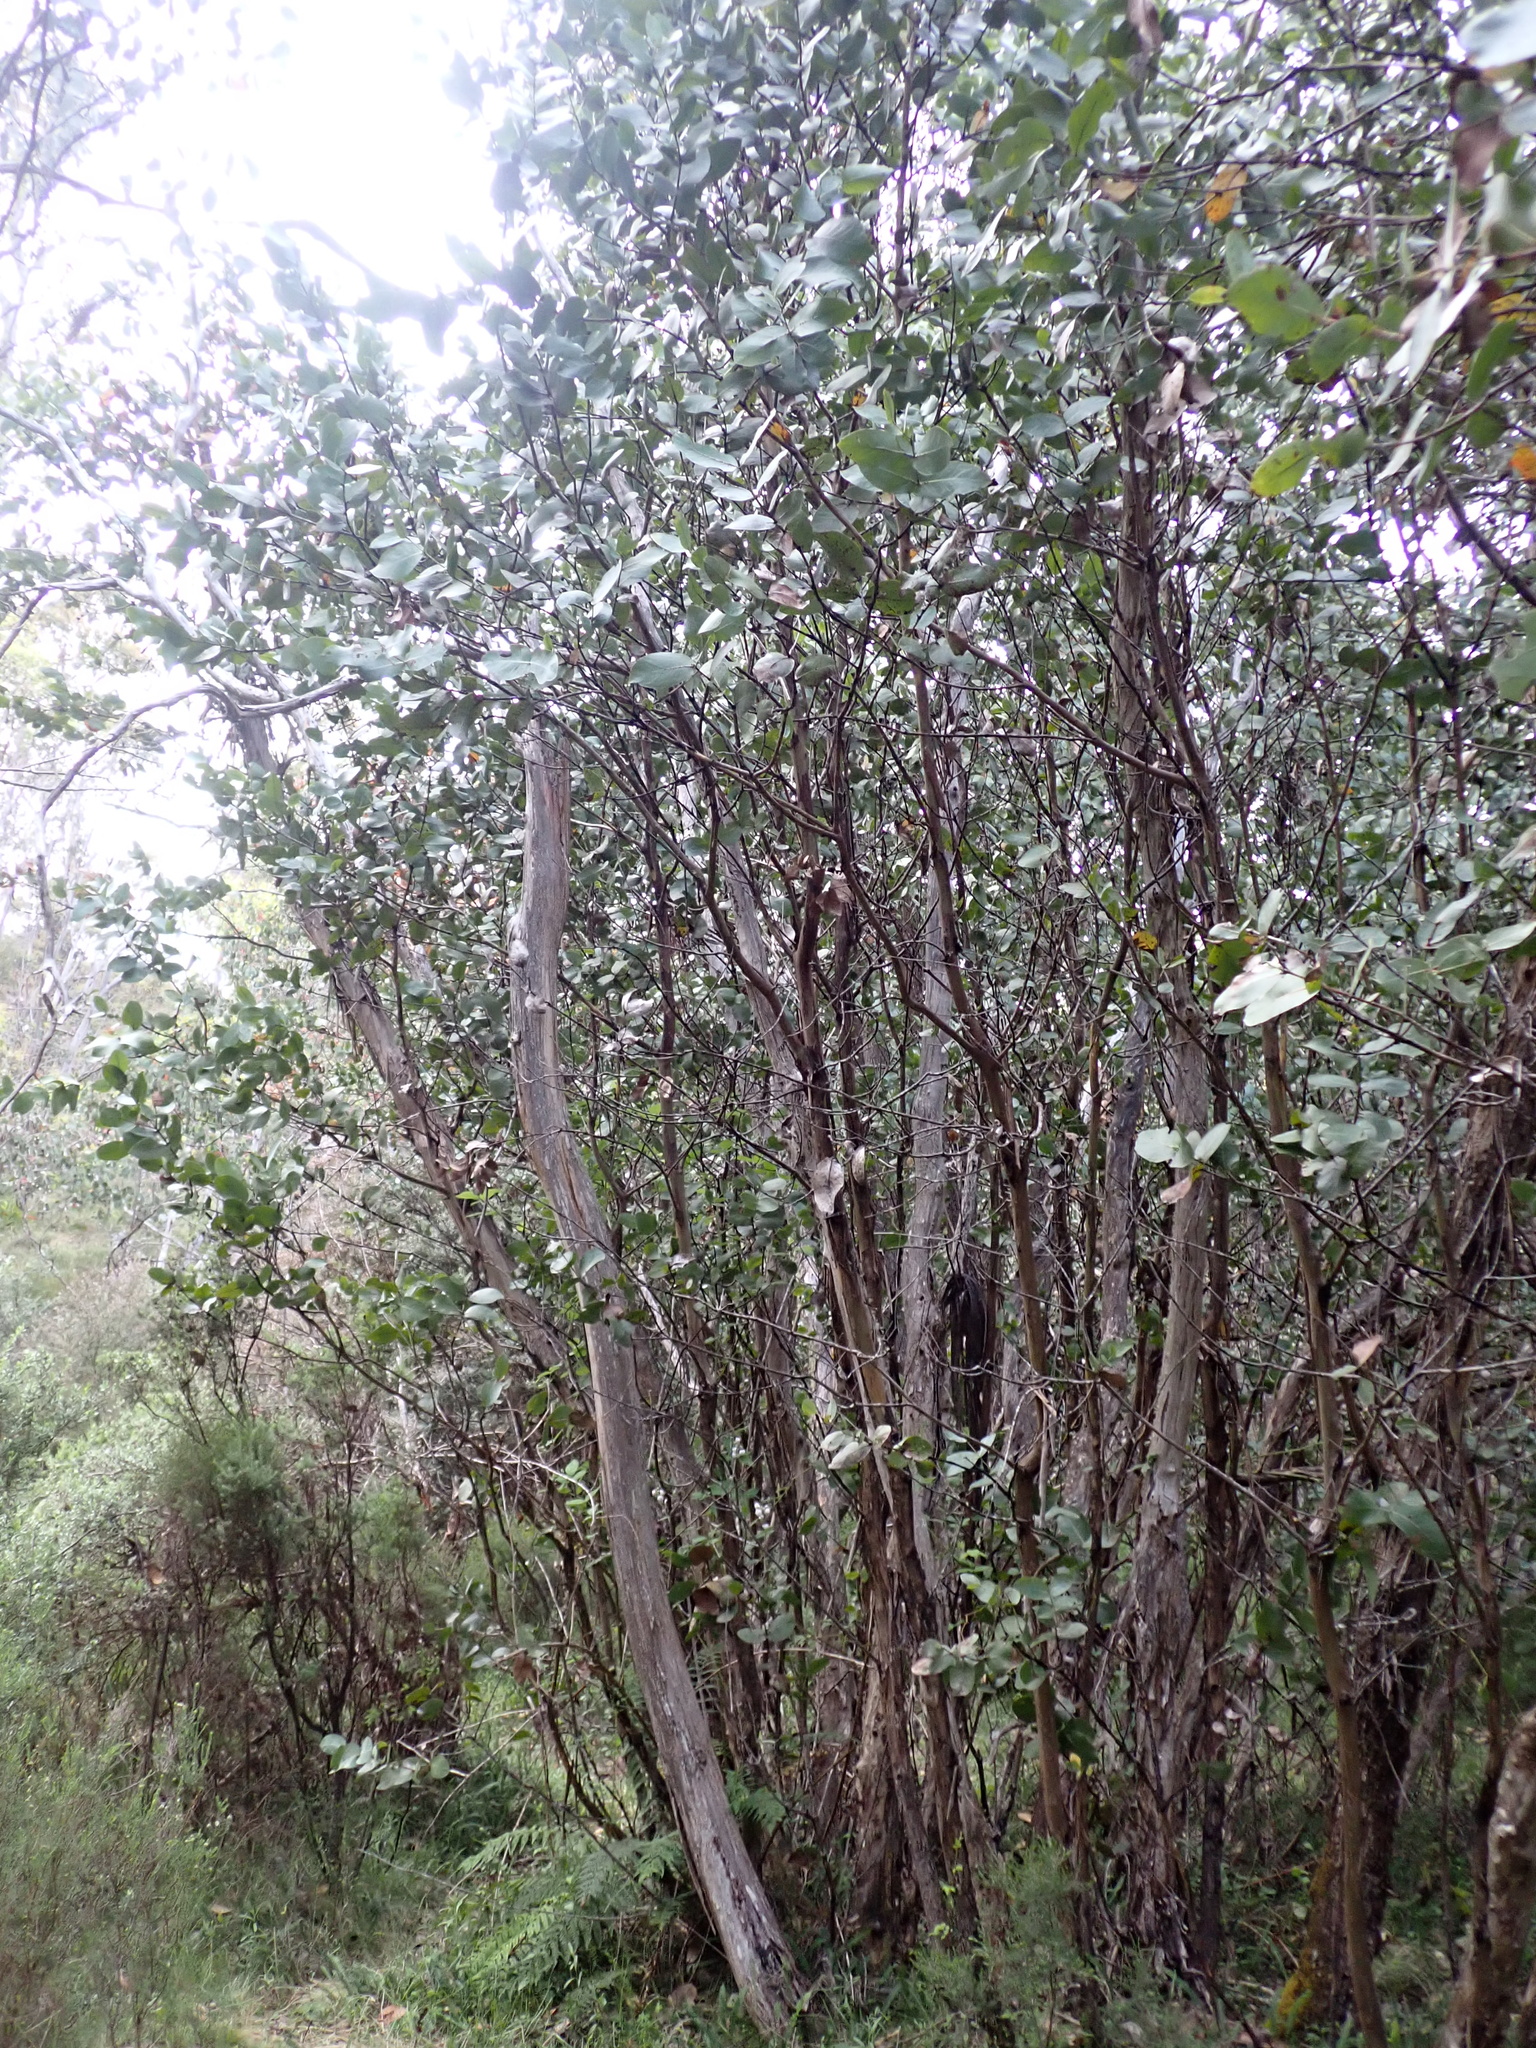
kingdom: Plantae
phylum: Tracheophyta
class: Magnoliopsida
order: Myrtales
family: Myrtaceae
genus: Eucalyptus
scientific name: Eucalyptus neglecta
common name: Omeo gum
